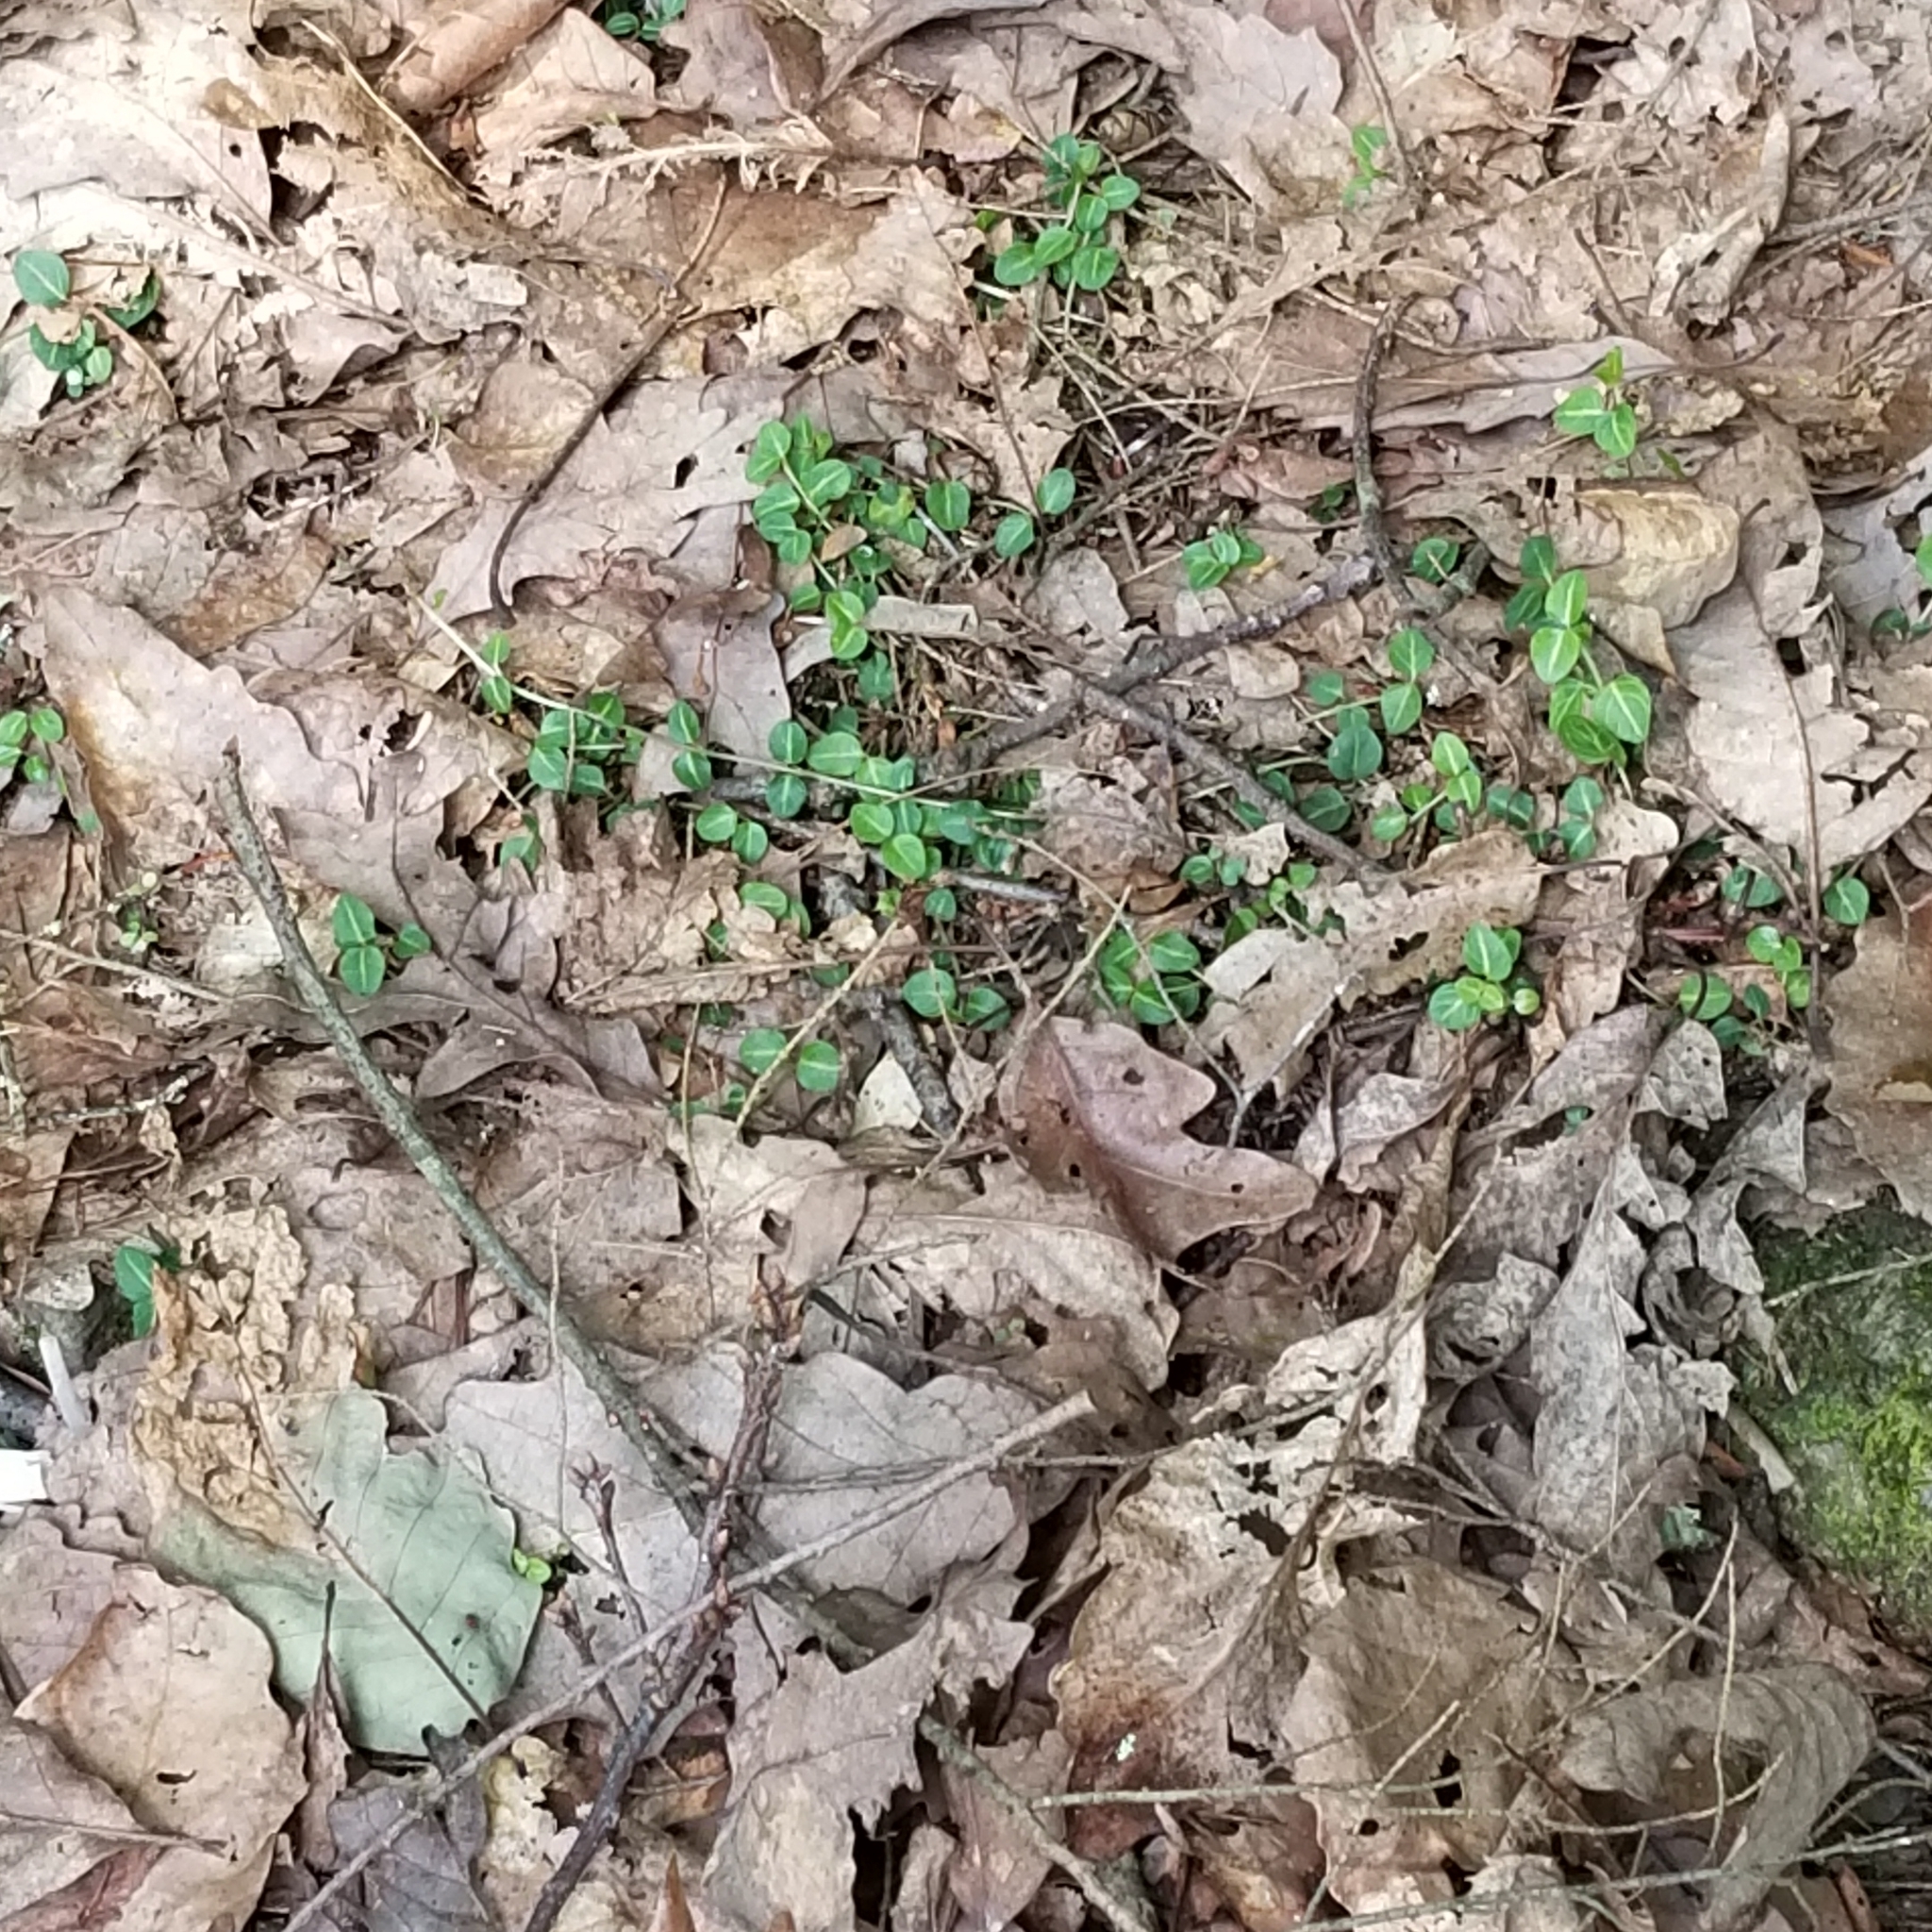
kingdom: Plantae
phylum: Tracheophyta
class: Magnoliopsida
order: Gentianales
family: Rubiaceae
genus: Mitchella
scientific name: Mitchella repens
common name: Partridge-berry
